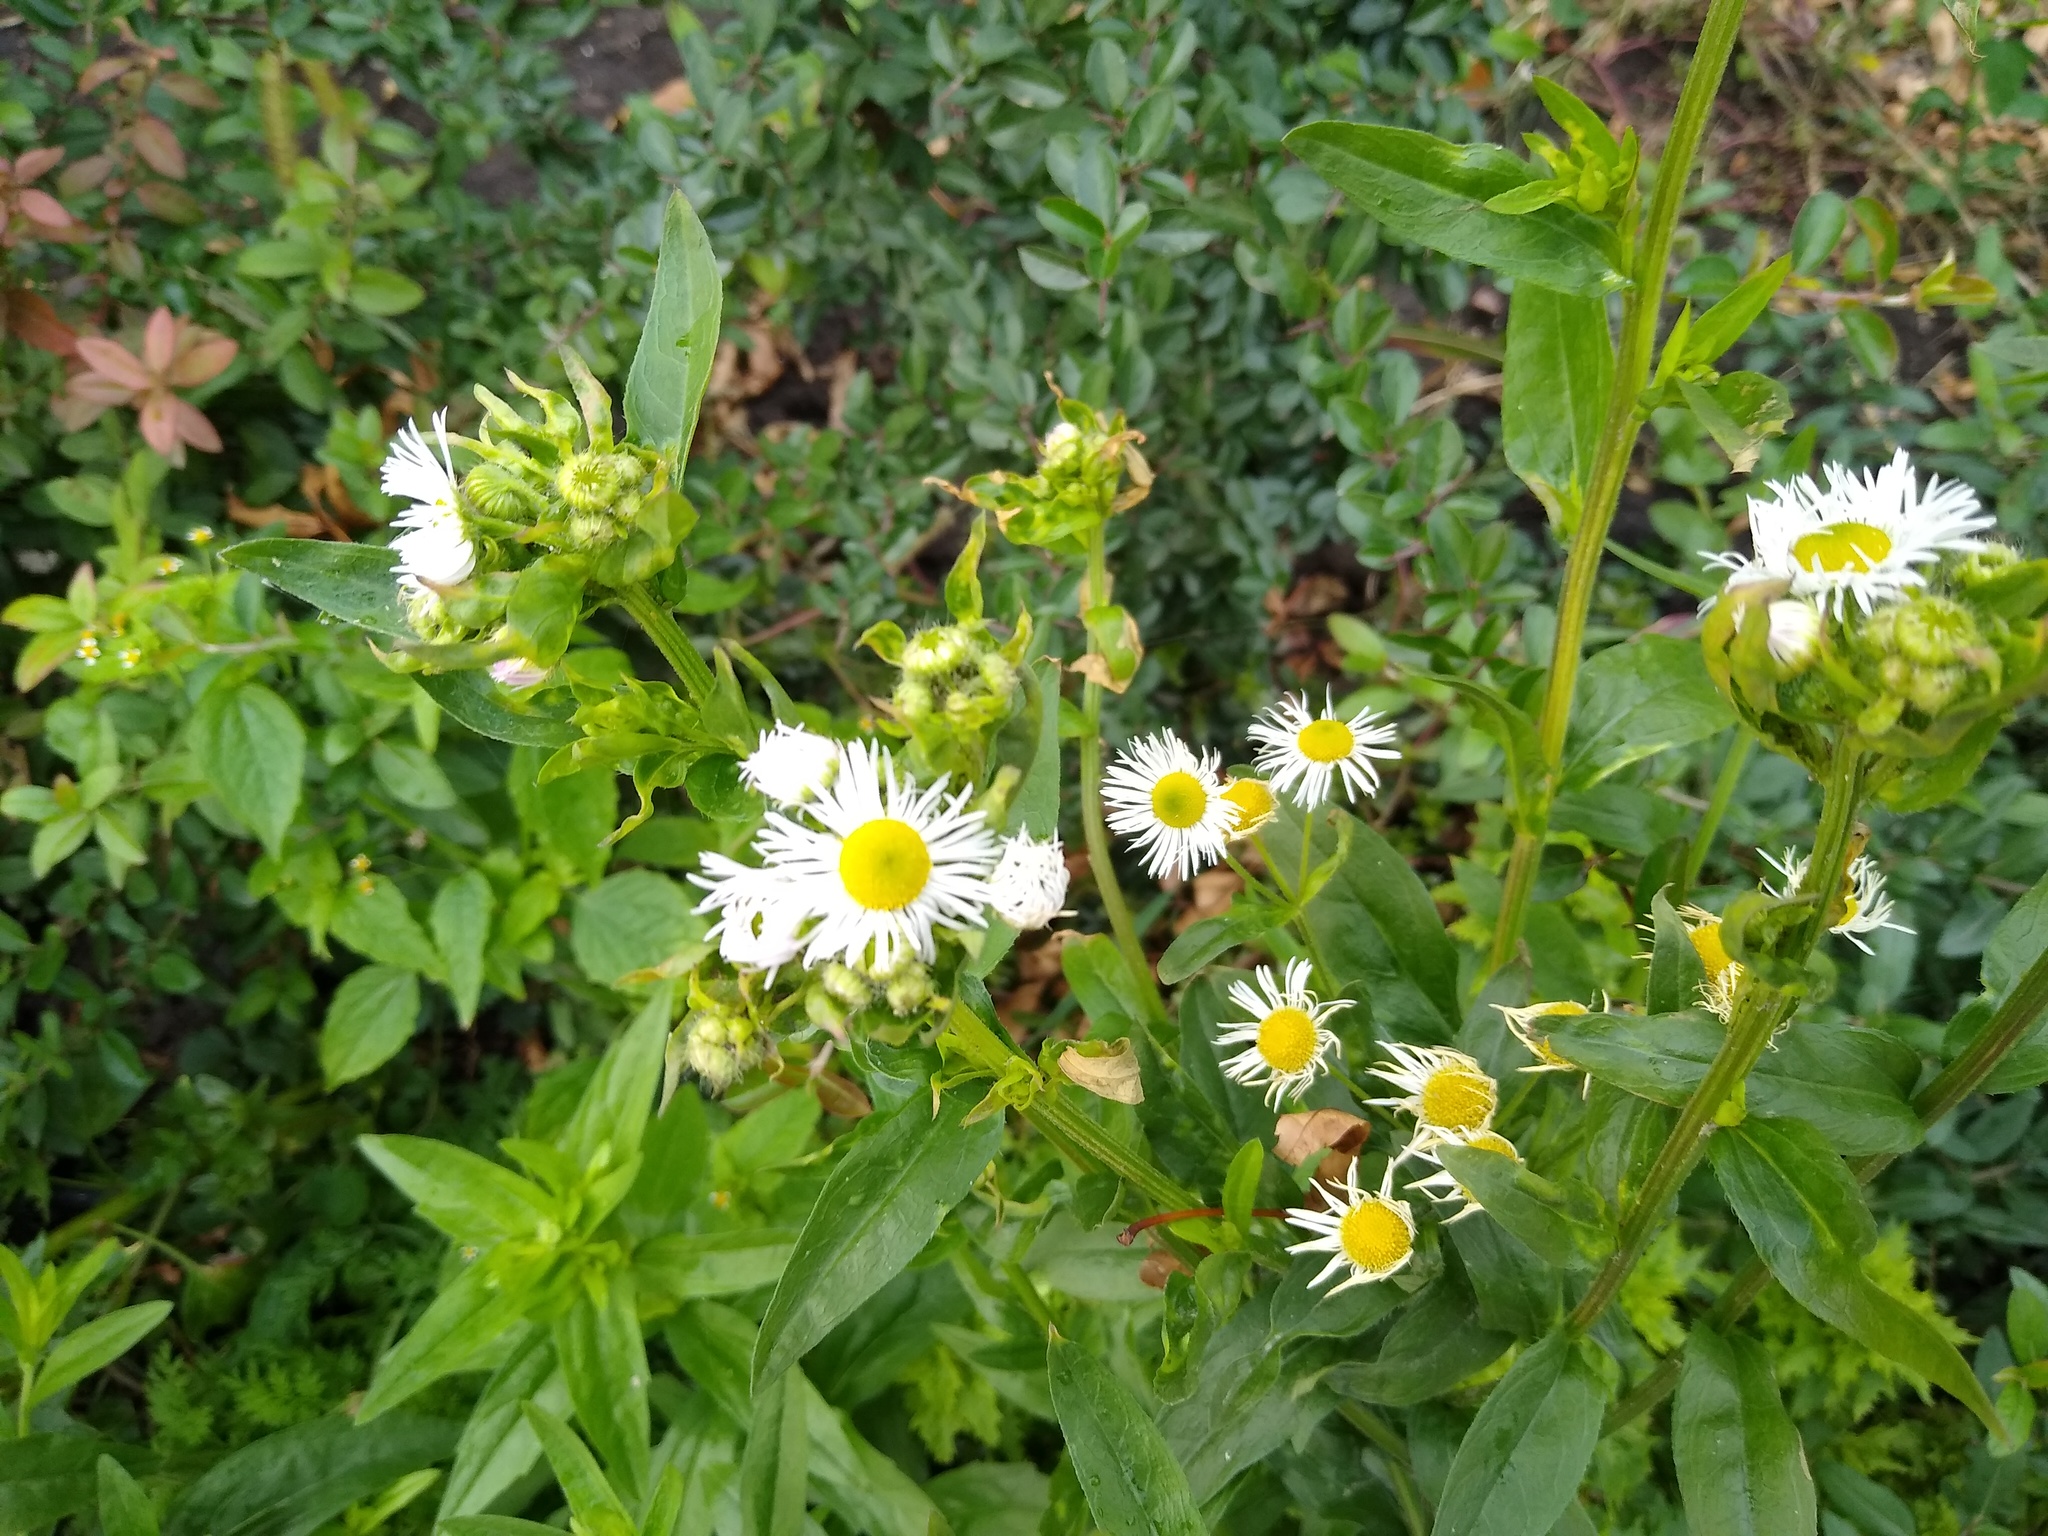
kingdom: Plantae
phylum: Tracheophyta
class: Magnoliopsida
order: Asterales
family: Asteraceae
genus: Erigeron
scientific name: Erigeron annuus
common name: Tall fleabane
